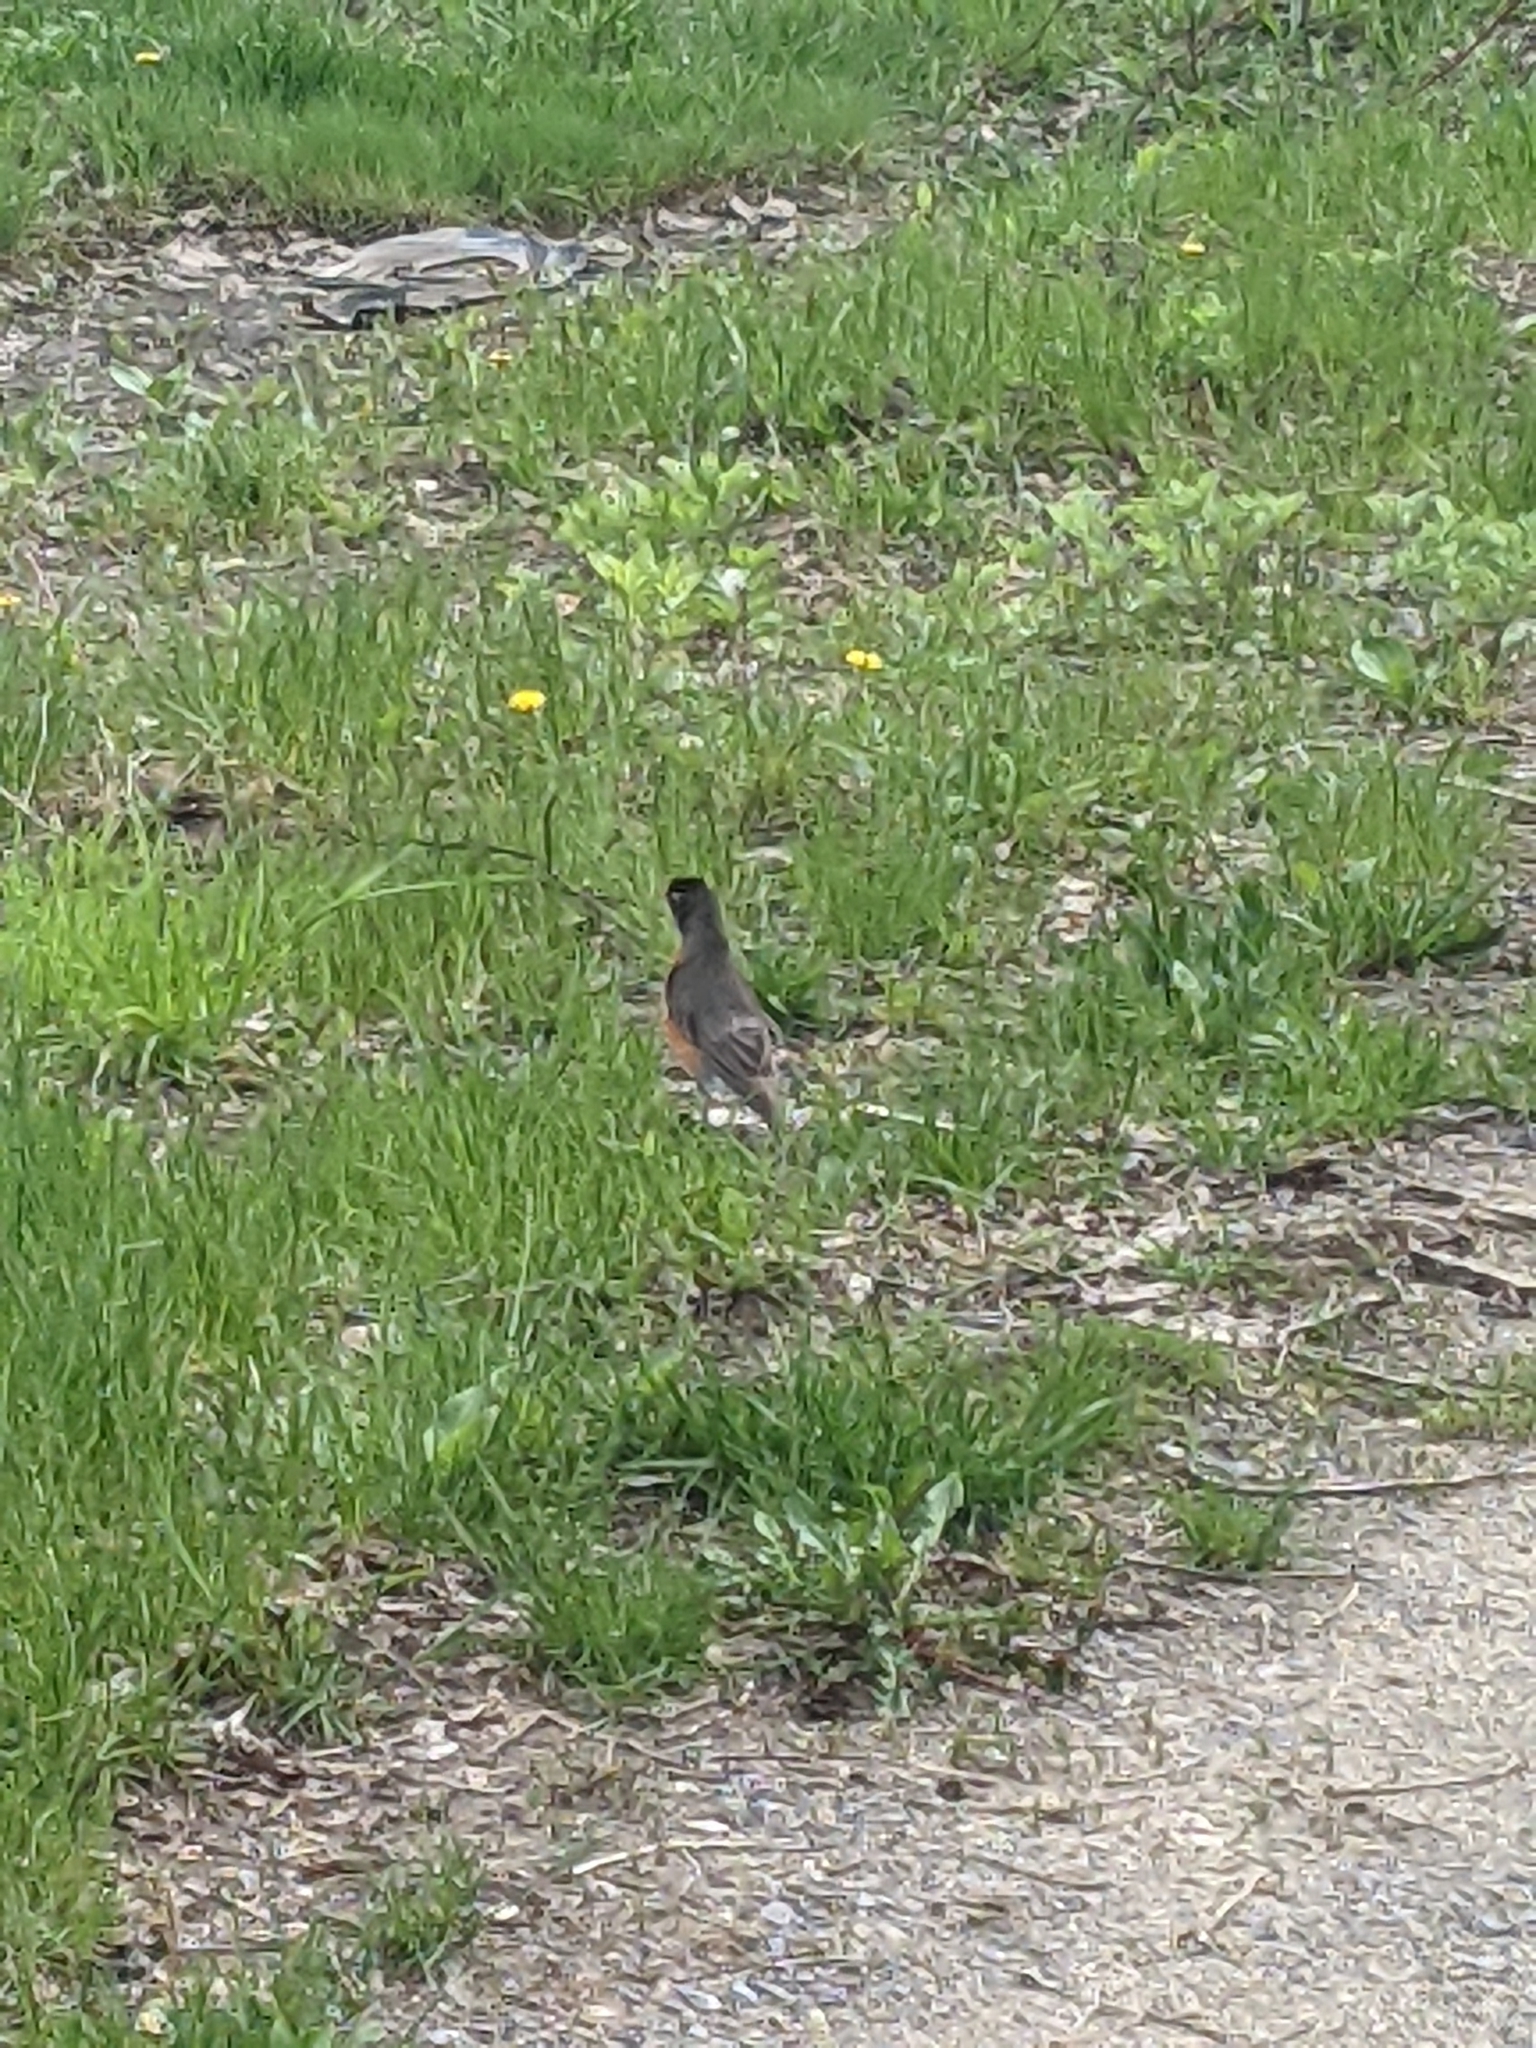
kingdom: Animalia
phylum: Chordata
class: Aves
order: Passeriformes
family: Turdidae
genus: Turdus
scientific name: Turdus migratorius
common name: American robin
